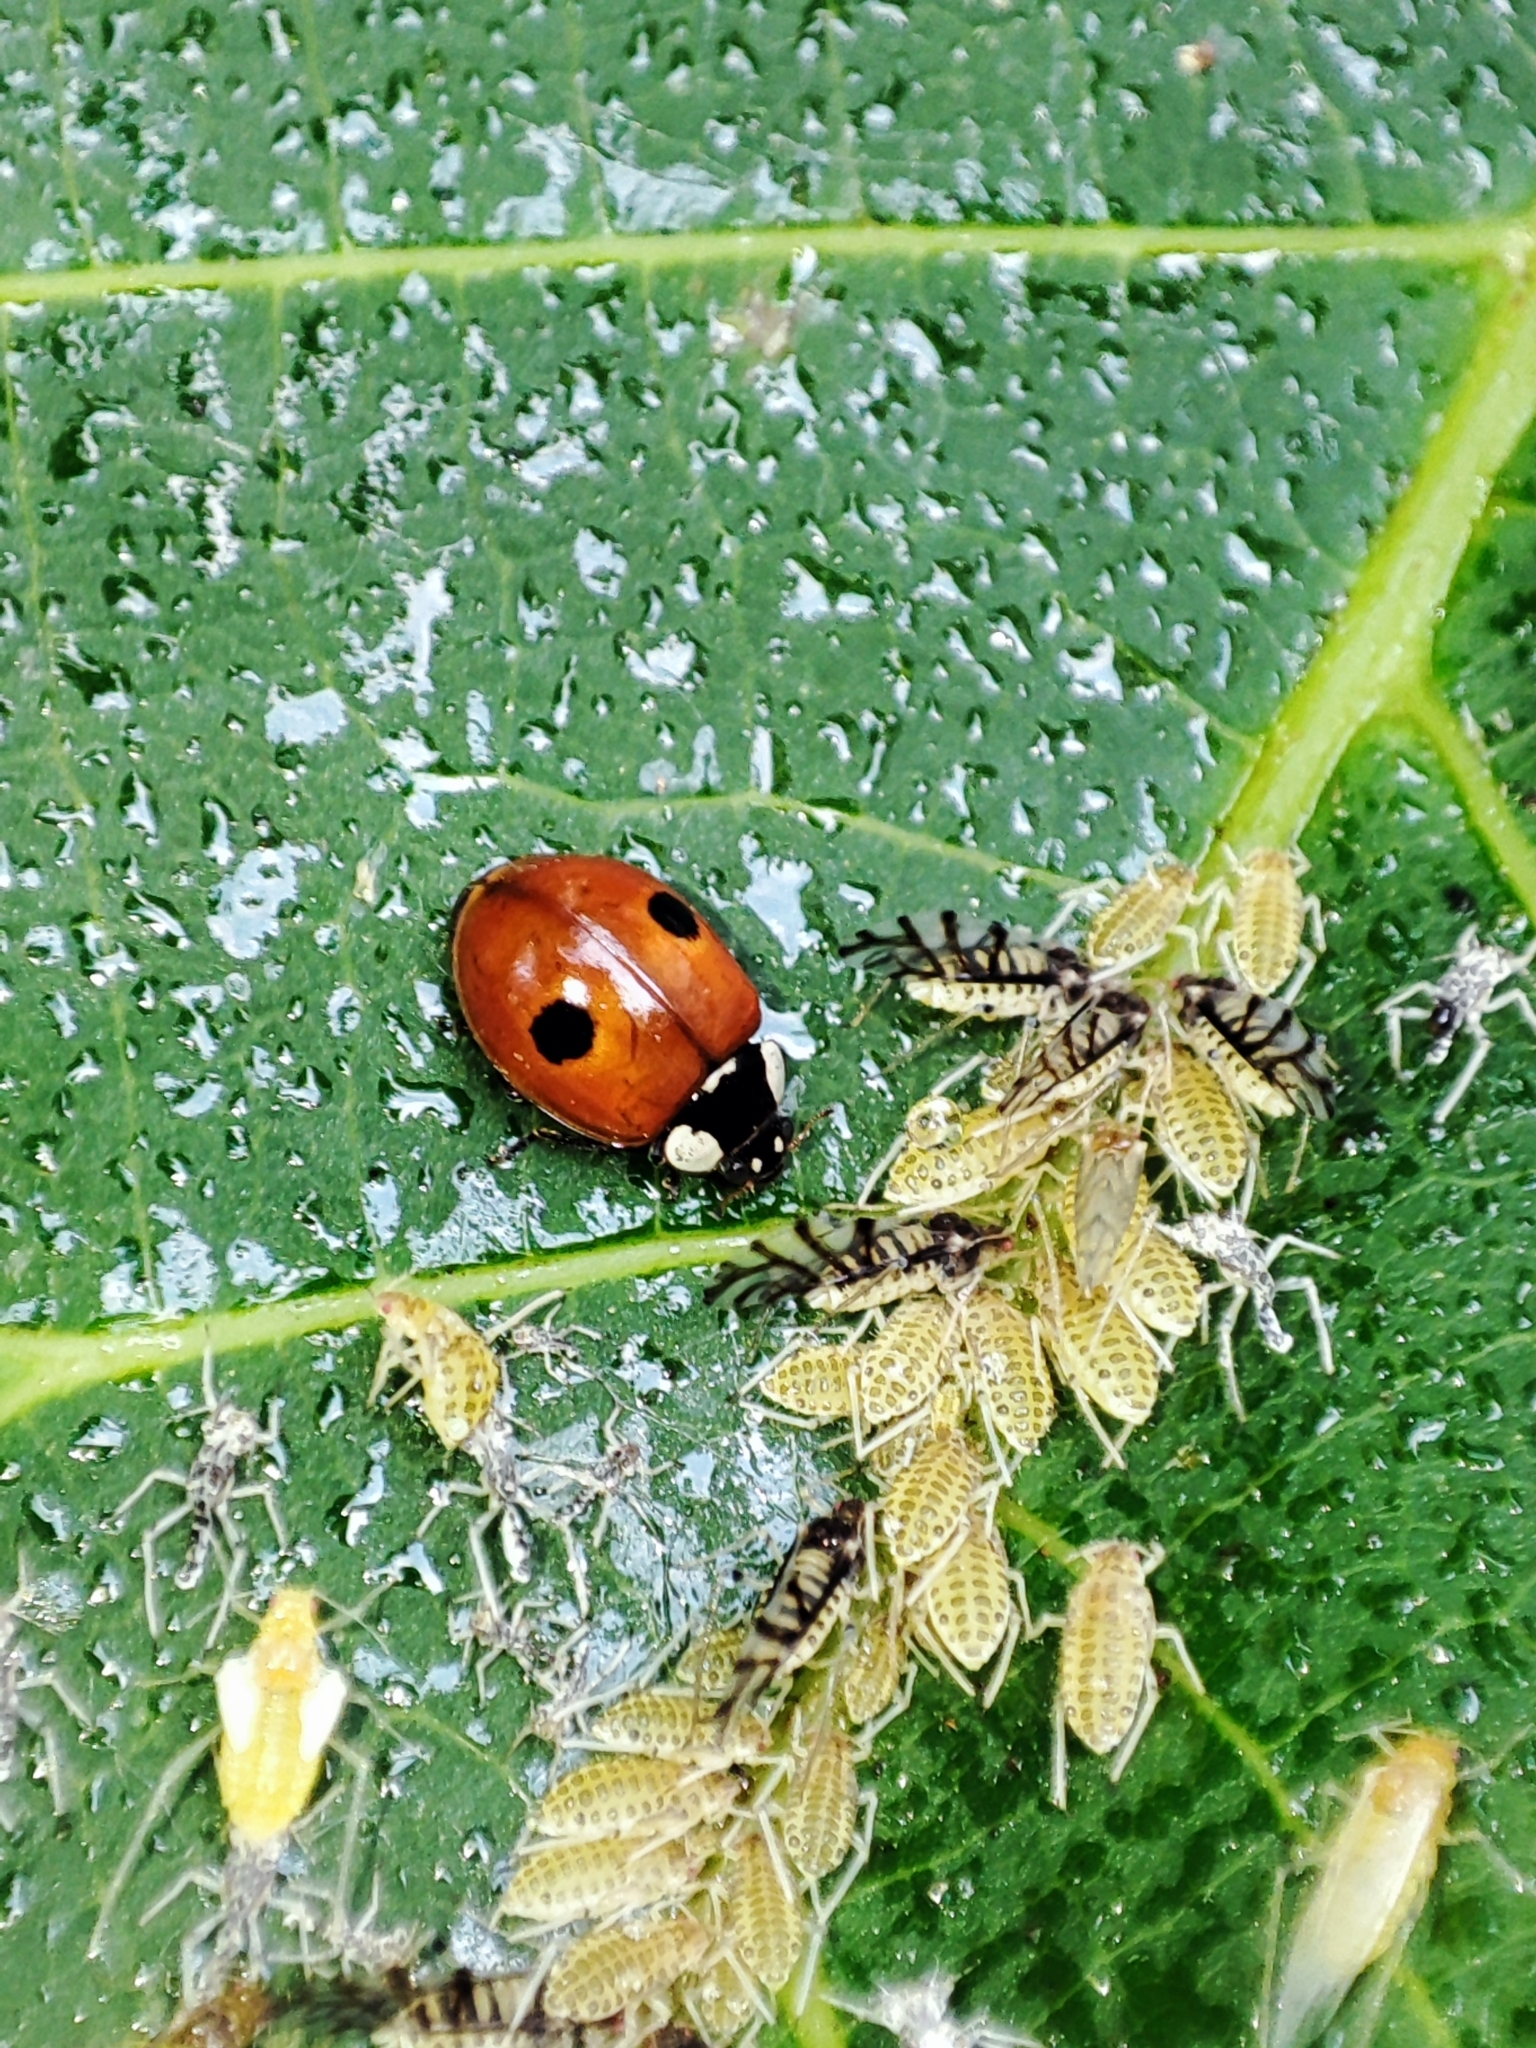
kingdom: Animalia
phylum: Arthropoda
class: Insecta
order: Coleoptera
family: Coccinellidae
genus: Adalia
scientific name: Adalia bipunctata
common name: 2-spot ladybird
